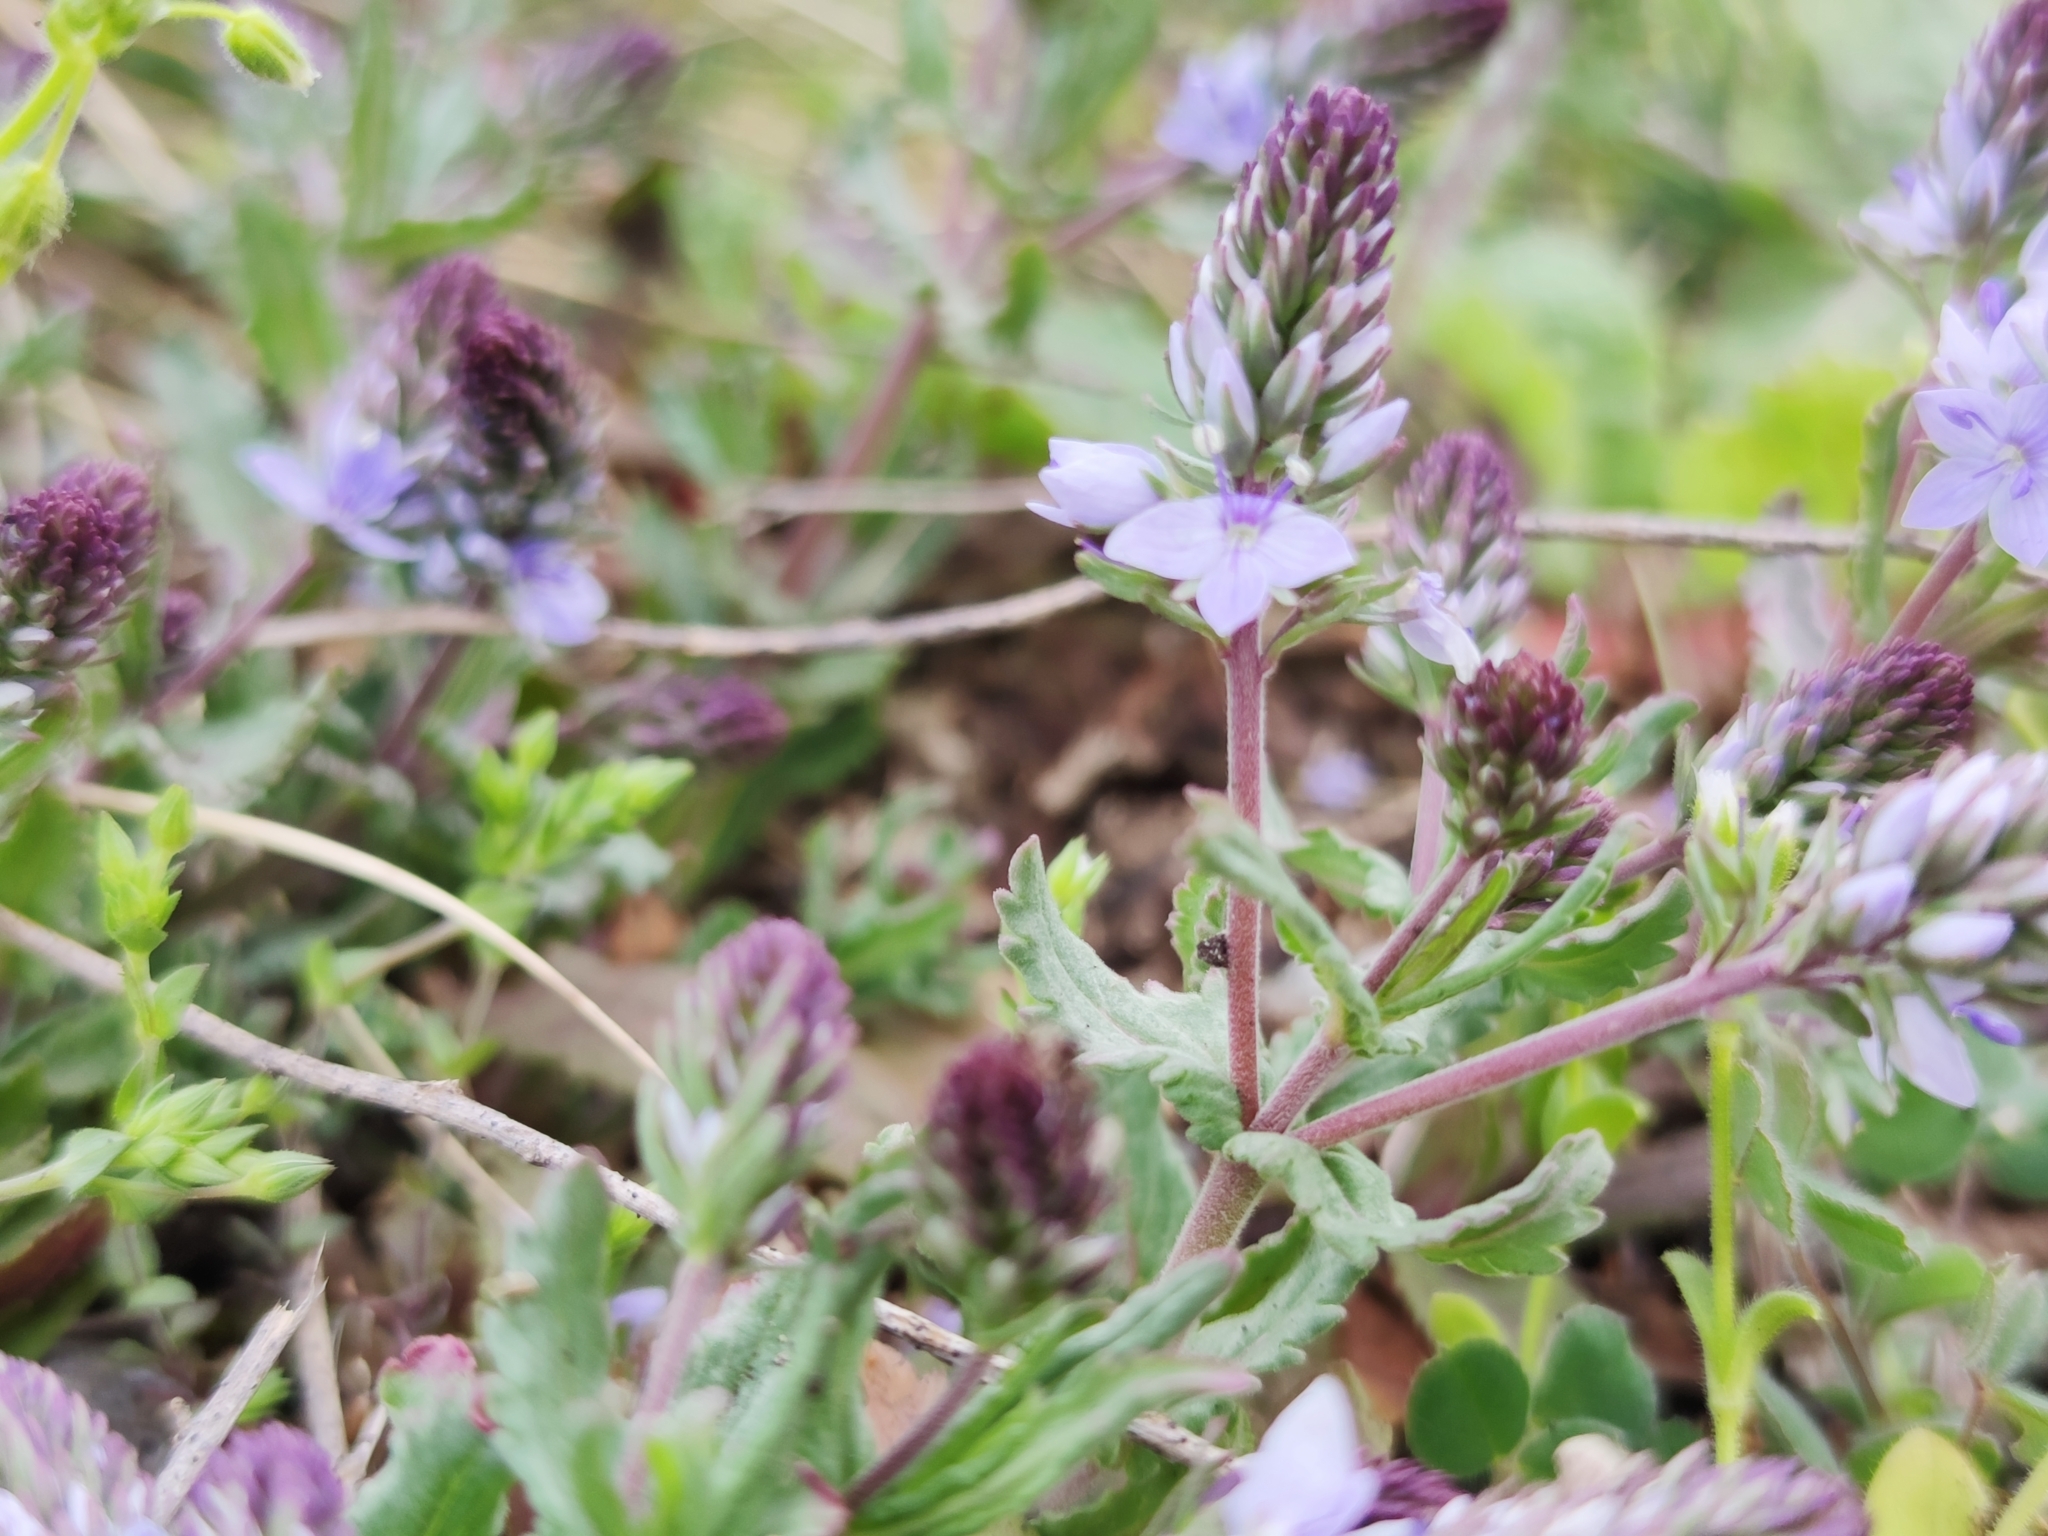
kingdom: Plantae
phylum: Tracheophyta
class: Magnoliopsida
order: Lamiales
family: Plantaginaceae
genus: Veronica
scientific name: Veronica prostrata
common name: Prostrate speedwell
